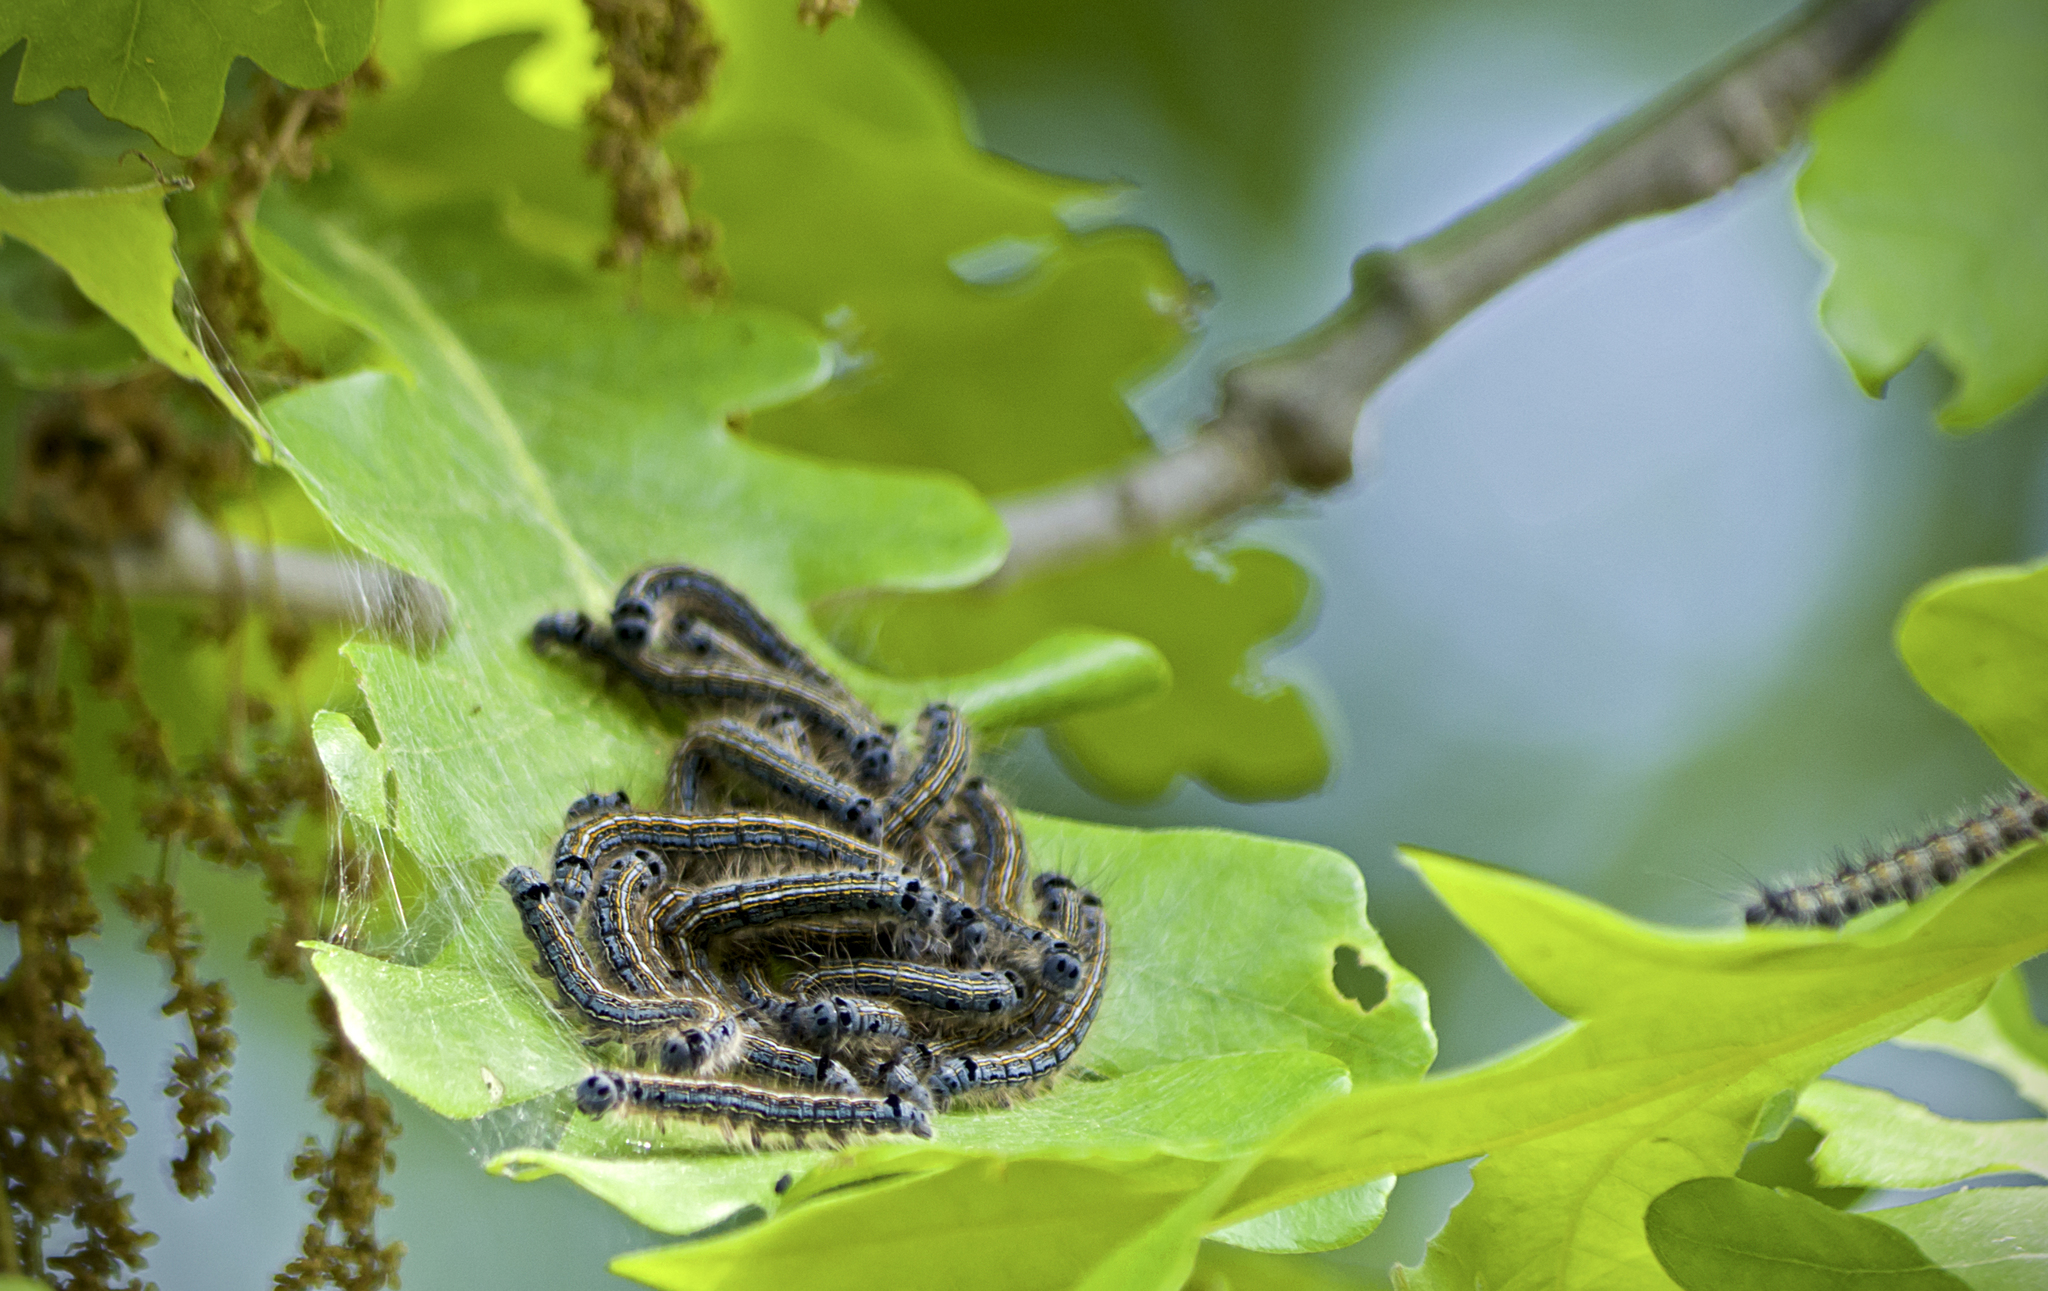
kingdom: Animalia
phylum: Arthropoda
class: Insecta
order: Lepidoptera
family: Lasiocampidae
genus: Malacosoma
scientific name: Malacosoma neustria
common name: The lackey
